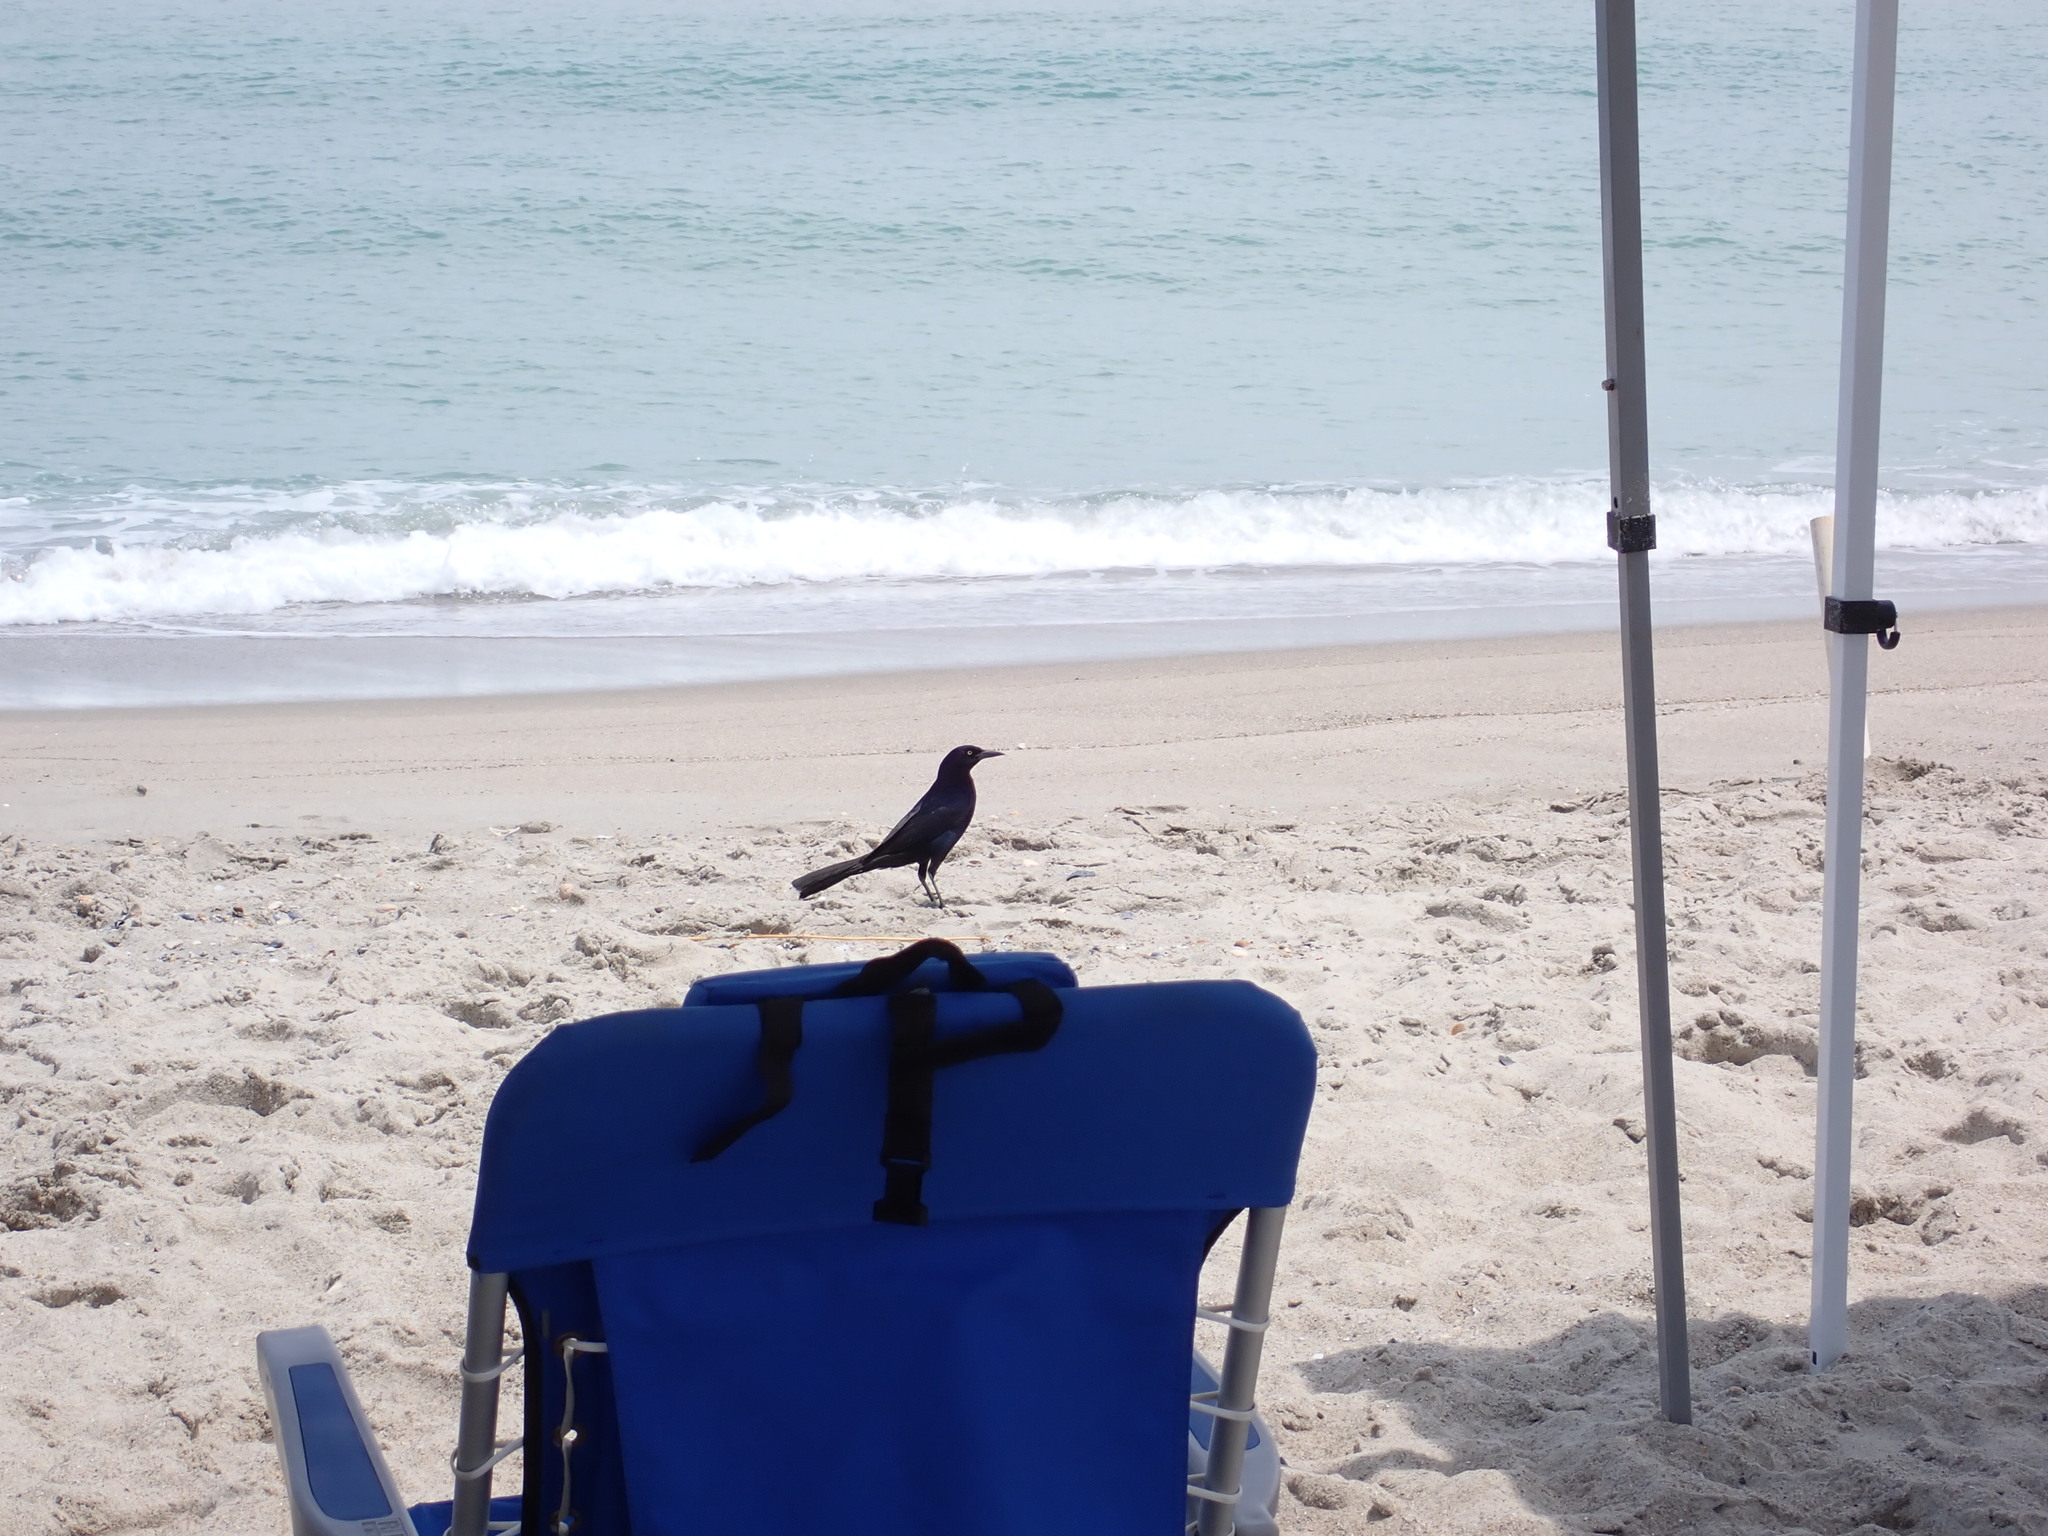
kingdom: Animalia
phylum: Chordata
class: Aves
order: Passeriformes
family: Icteridae
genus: Quiscalus
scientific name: Quiscalus major
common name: Boat-tailed grackle
